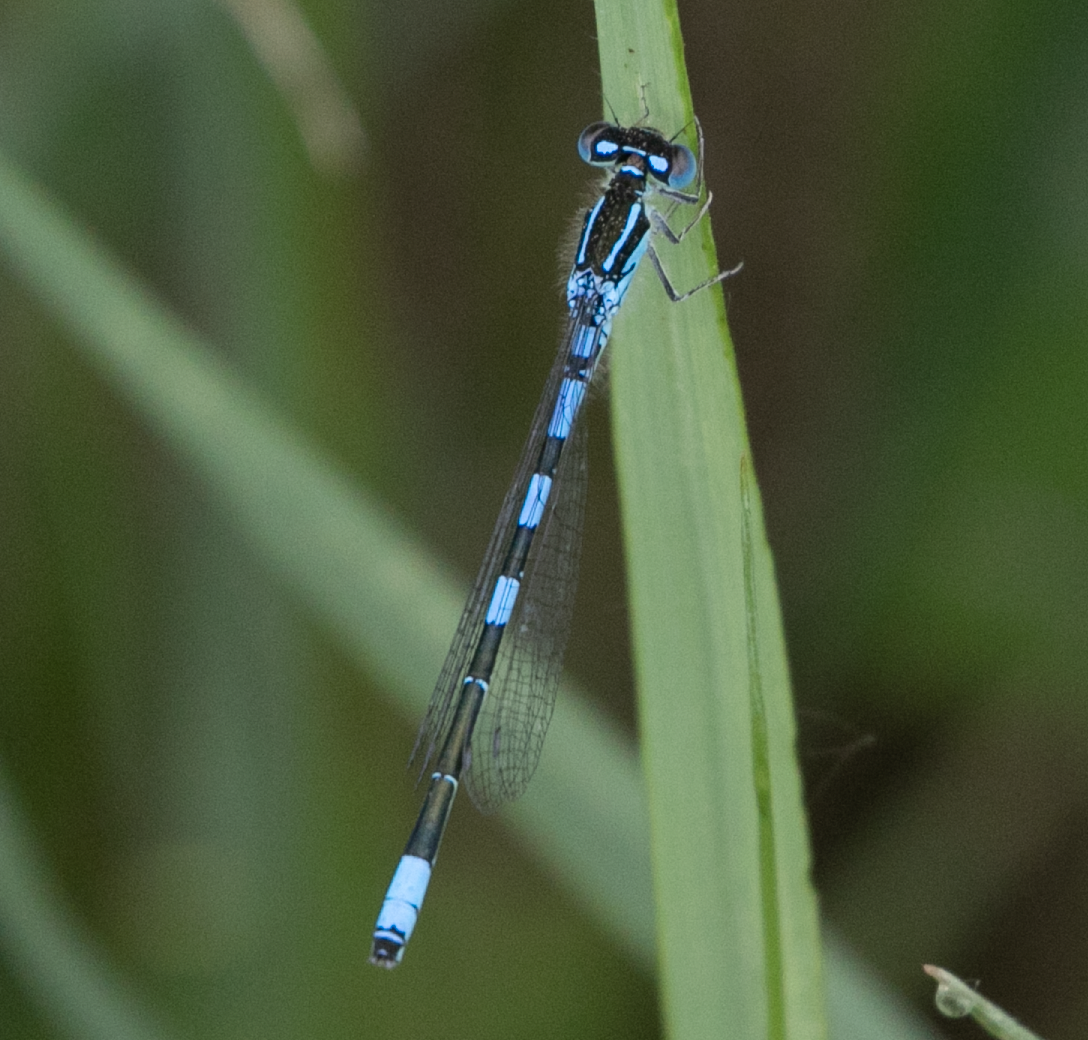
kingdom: Animalia
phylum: Arthropoda
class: Insecta
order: Odonata
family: Coenagrionidae
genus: Coenagrion
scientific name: Coenagrion scitulum
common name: Dainty bluet
